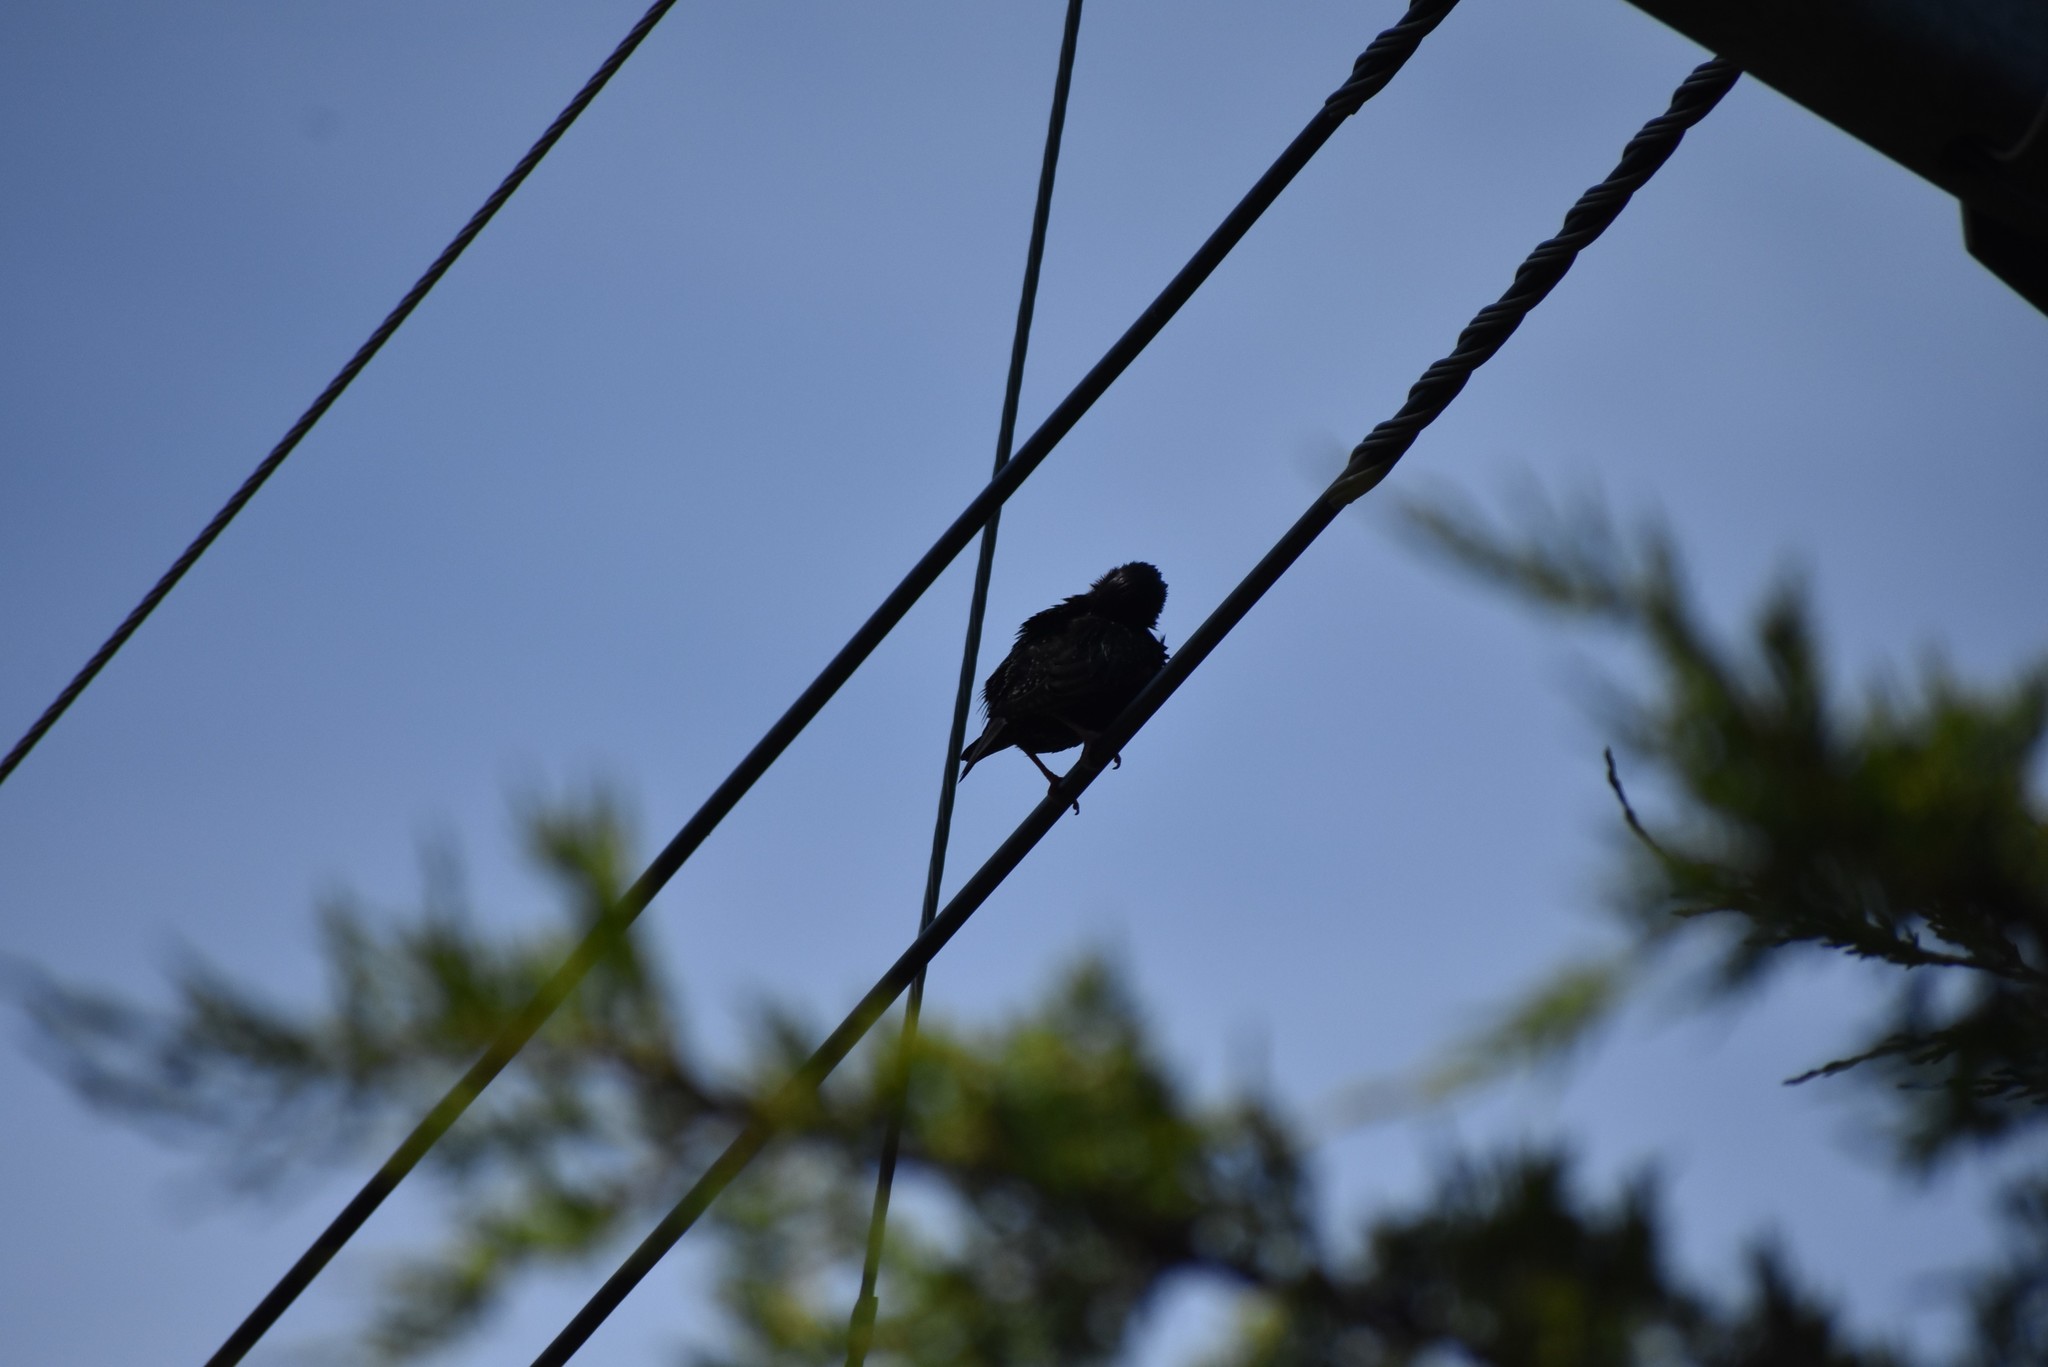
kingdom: Animalia
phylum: Chordata
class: Aves
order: Passeriformes
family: Sturnidae
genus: Sturnus
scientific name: Sturnus vulgaris
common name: Common starling
